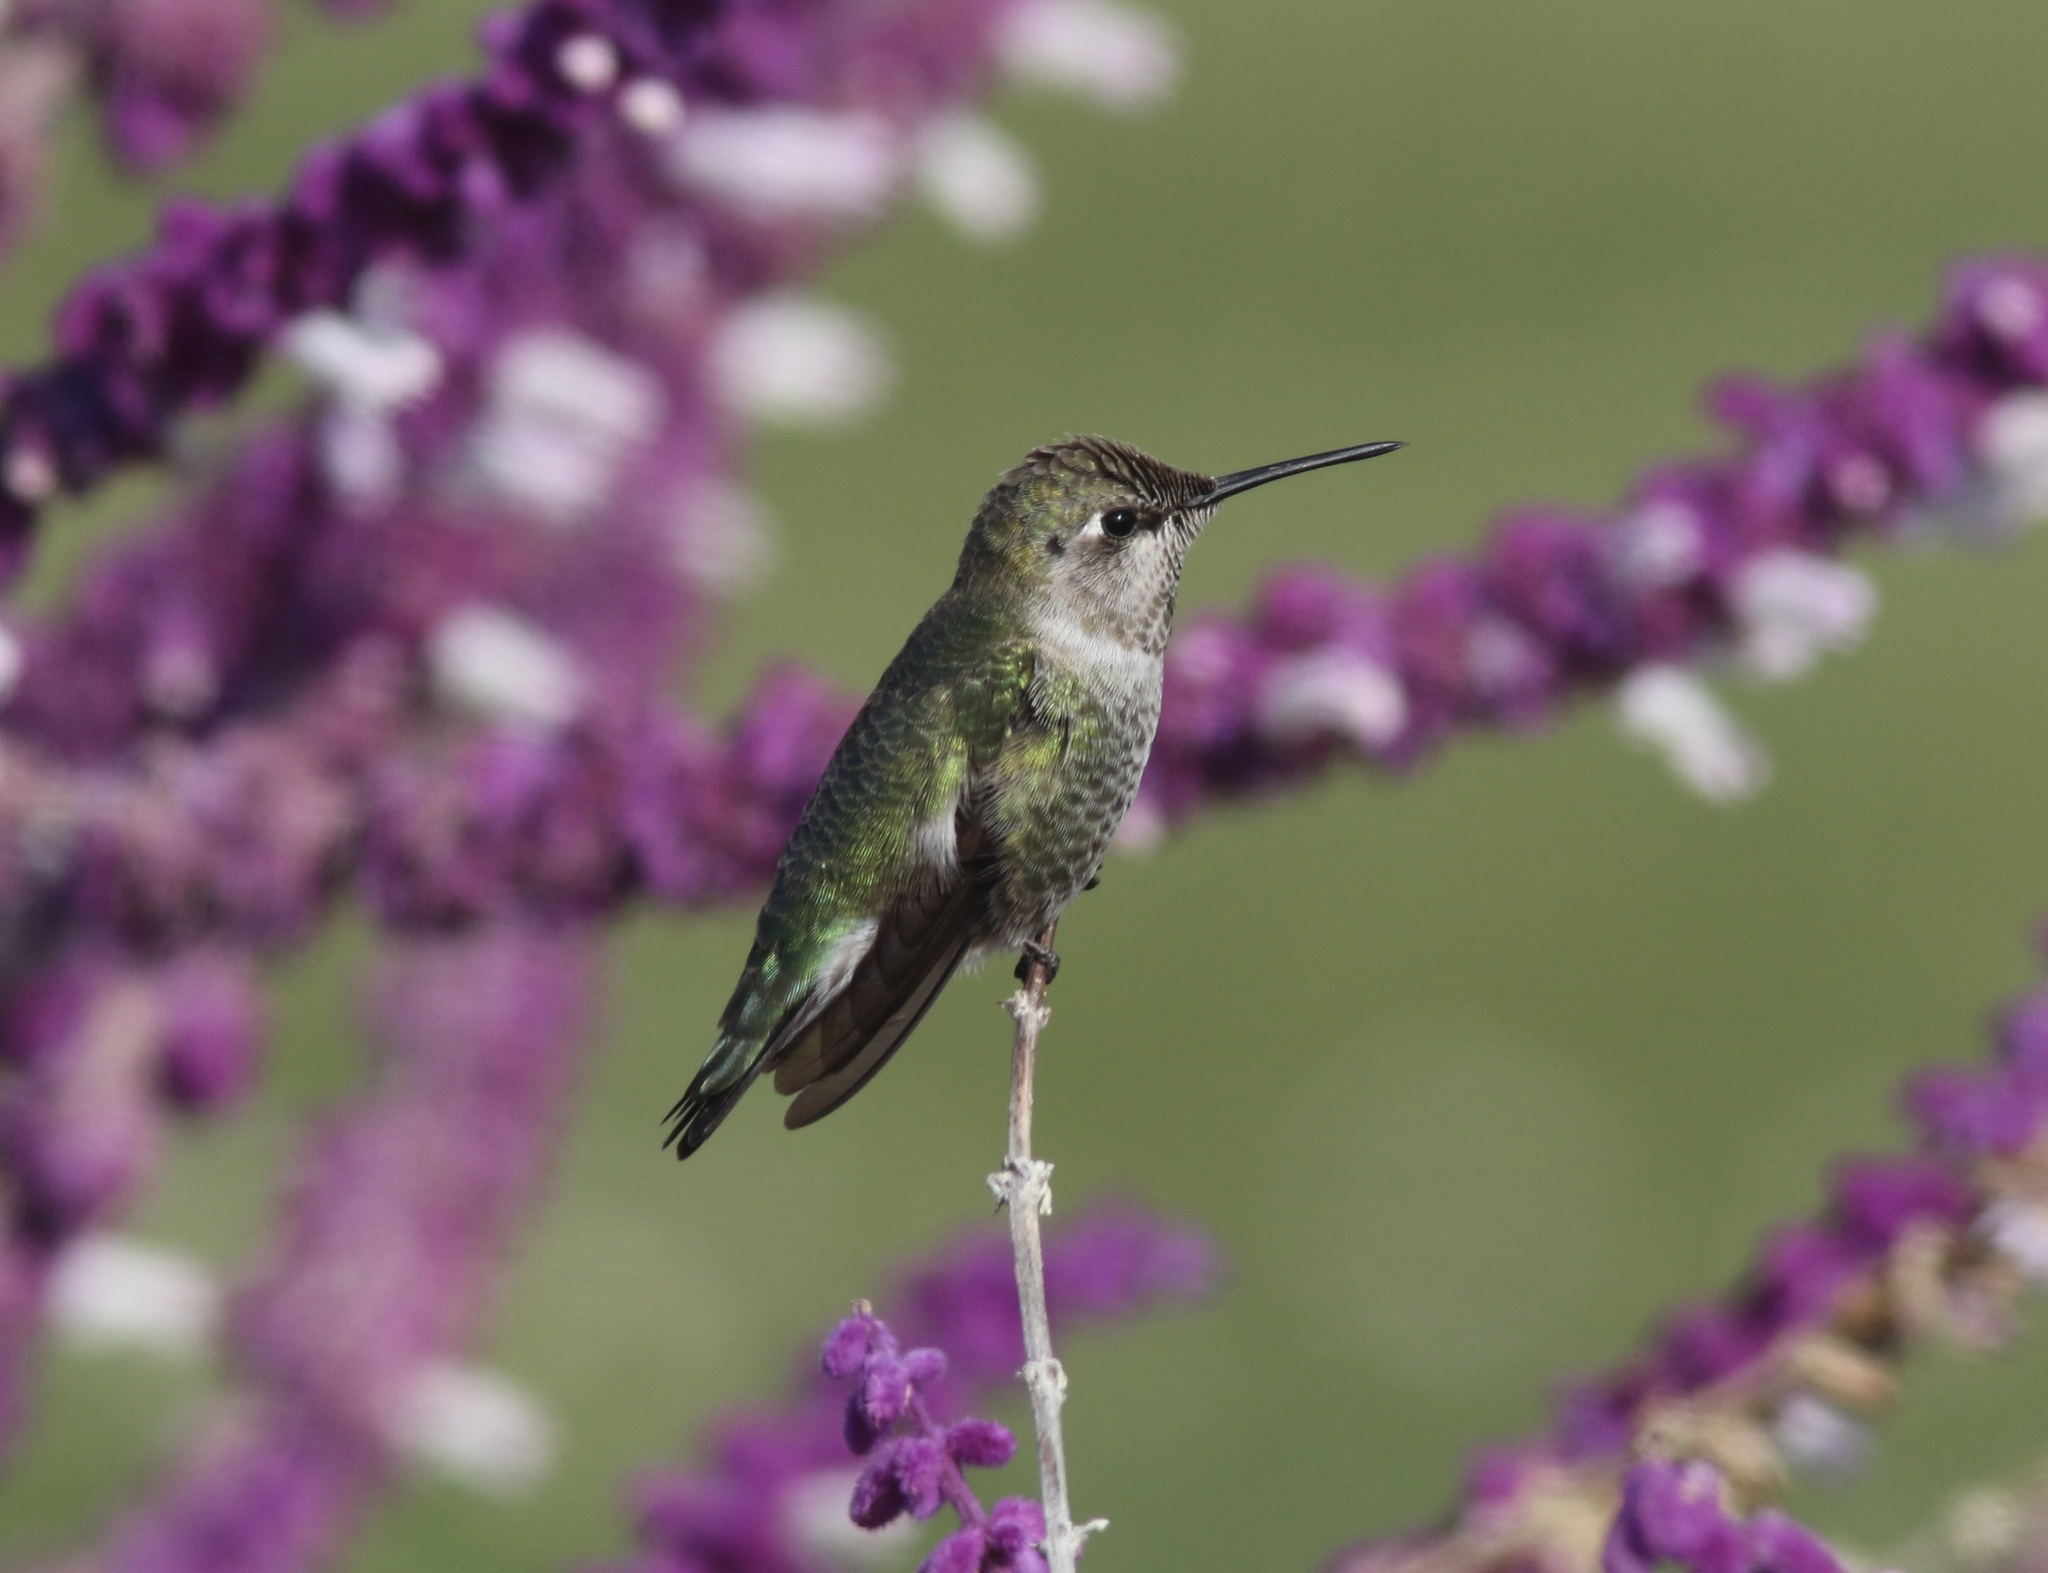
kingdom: Animalia
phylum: Chordata
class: Aves
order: Apodiformes
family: Trochilidae
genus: Calypte
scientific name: Calypte anna
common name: Anna's hummingbird
